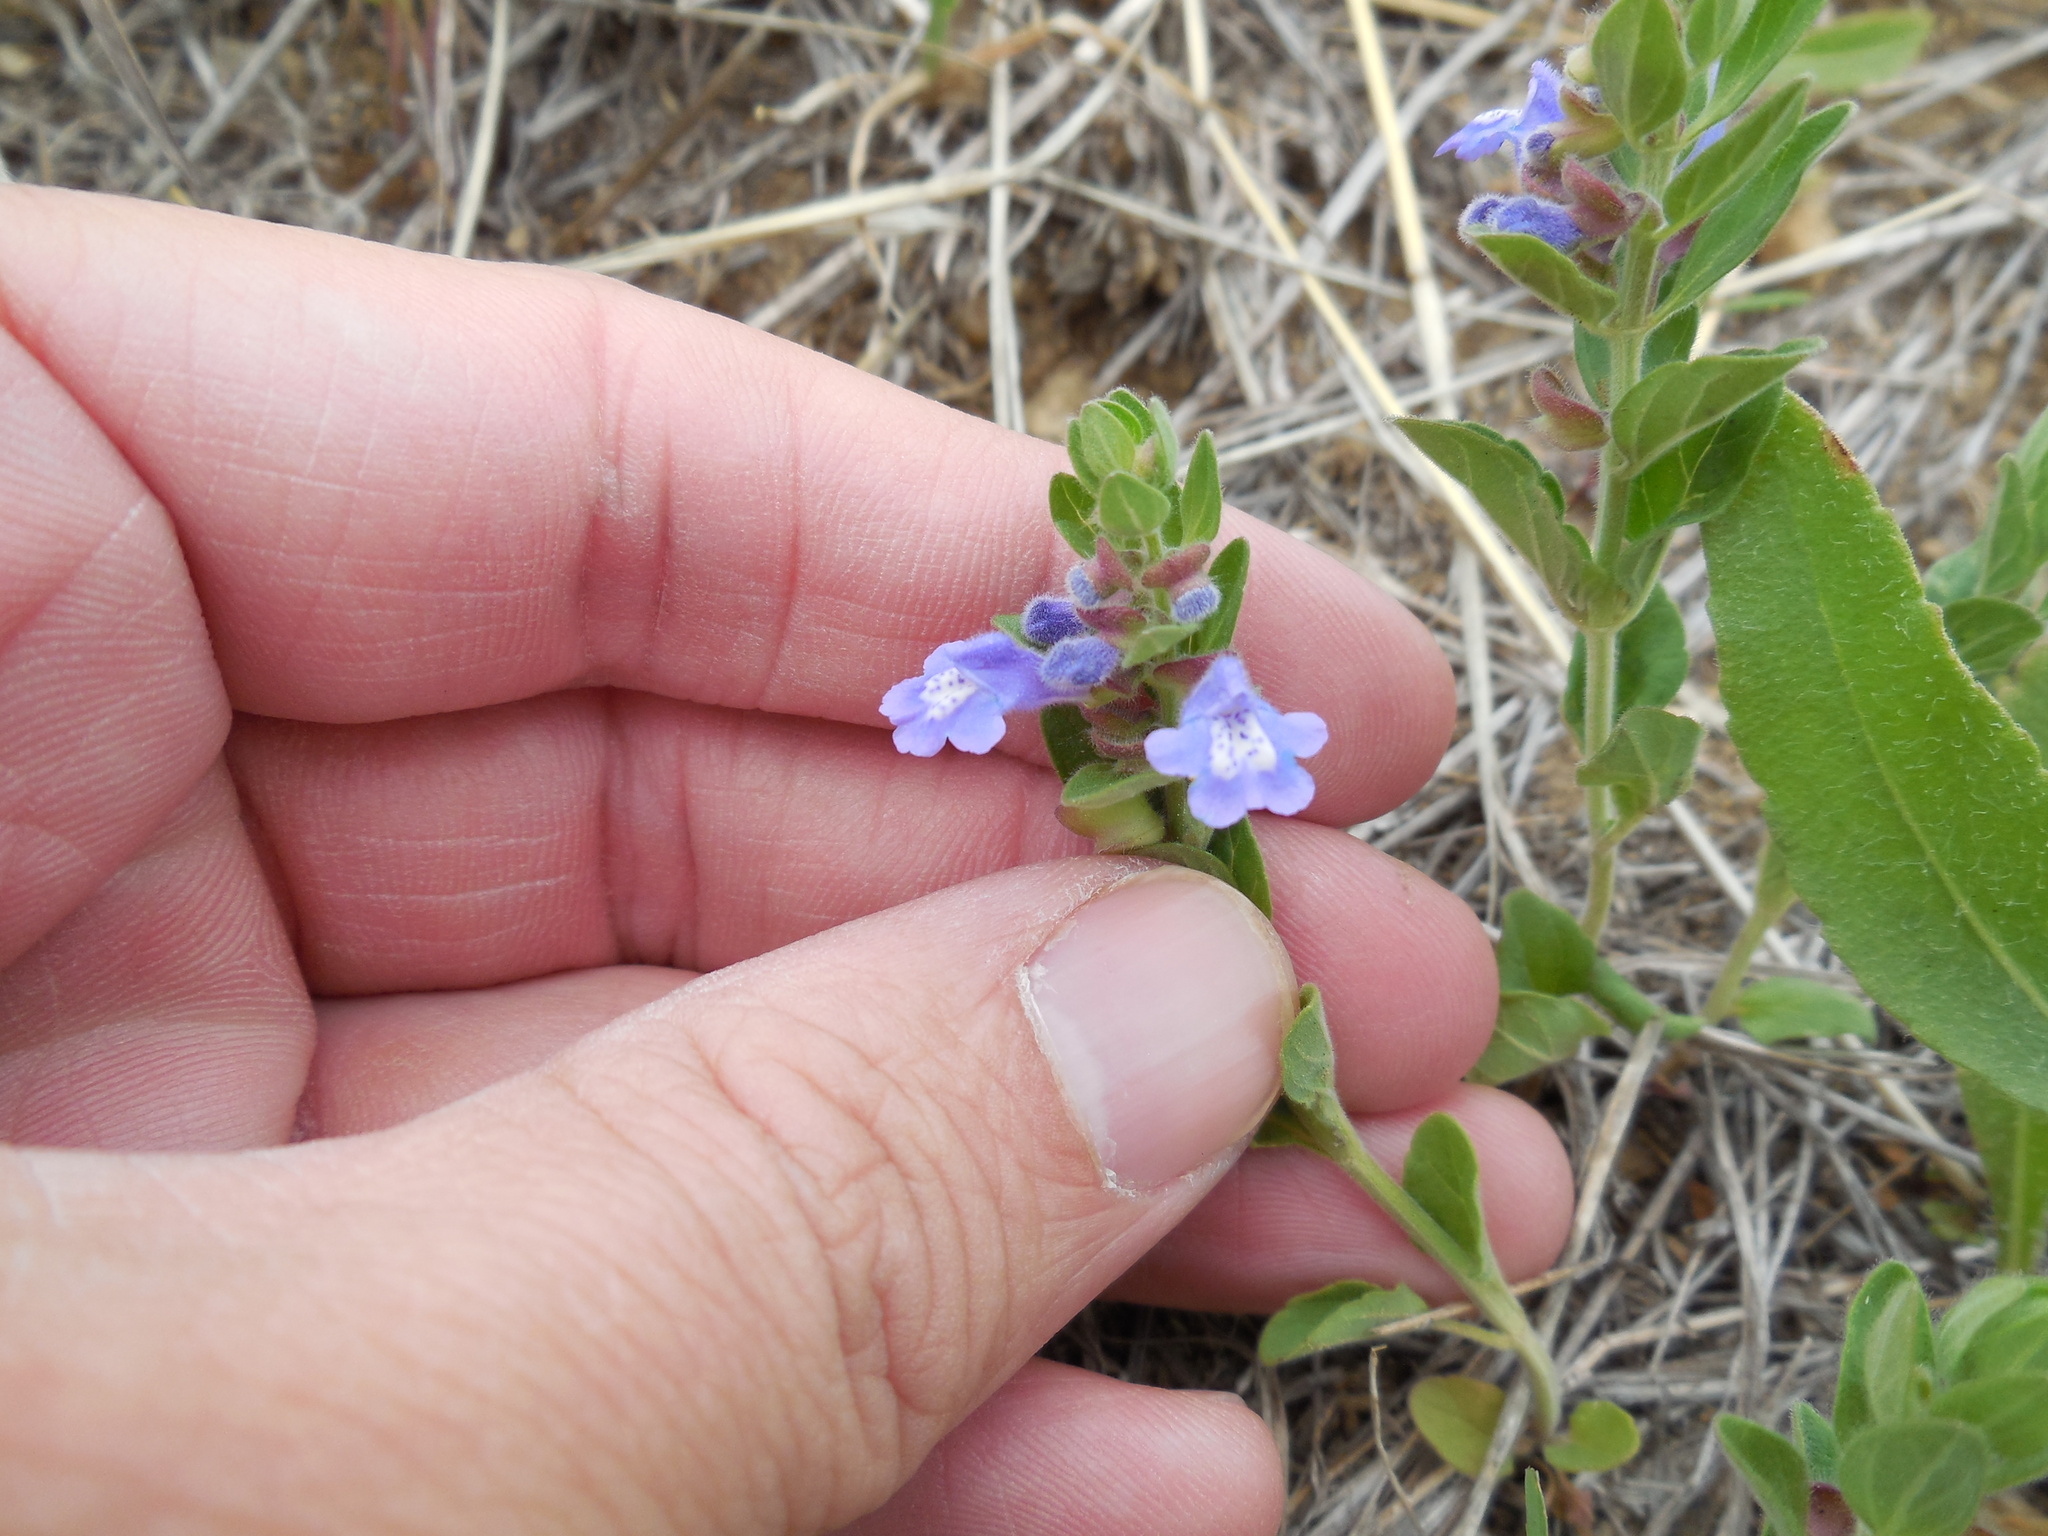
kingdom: Plantae
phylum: Tracheophyta
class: Magnoliopsida
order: Lamiales
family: Lamiaceae
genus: Scutellaria
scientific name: Scutellaria drummondii
